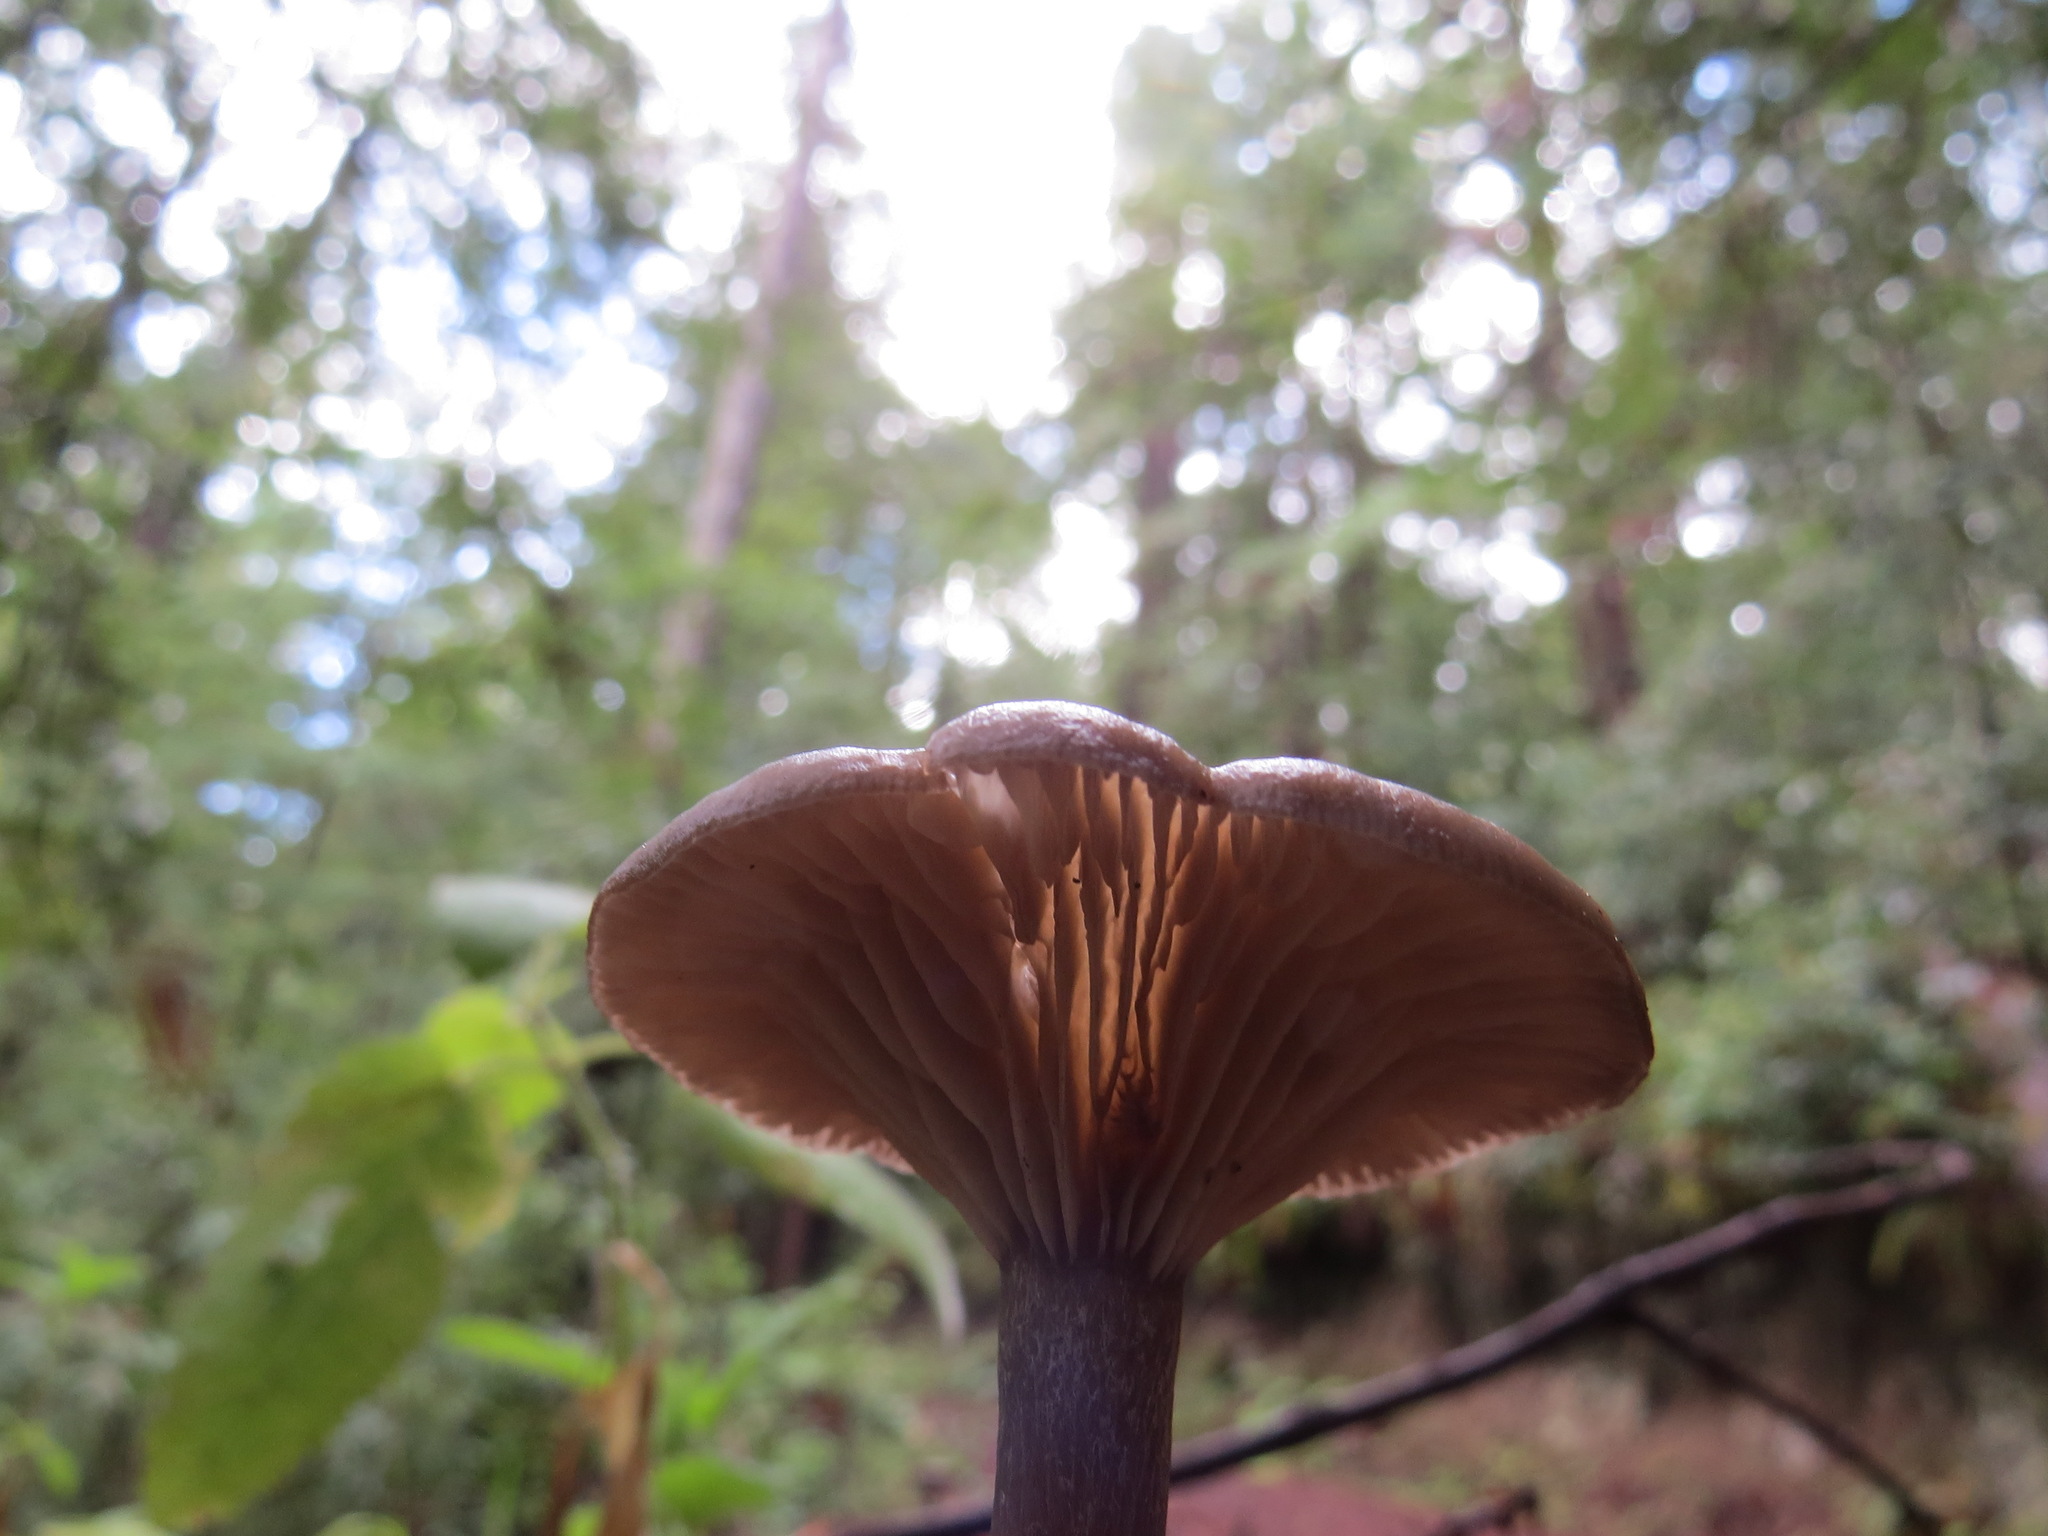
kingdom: Fungi
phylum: Basidiomycota
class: Agaricomycetes
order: Agaricales
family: Pseudoclitocybaceae
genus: Pseudoclitocybe
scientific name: Pseudoclitocybe cyathiformis
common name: Goblet
